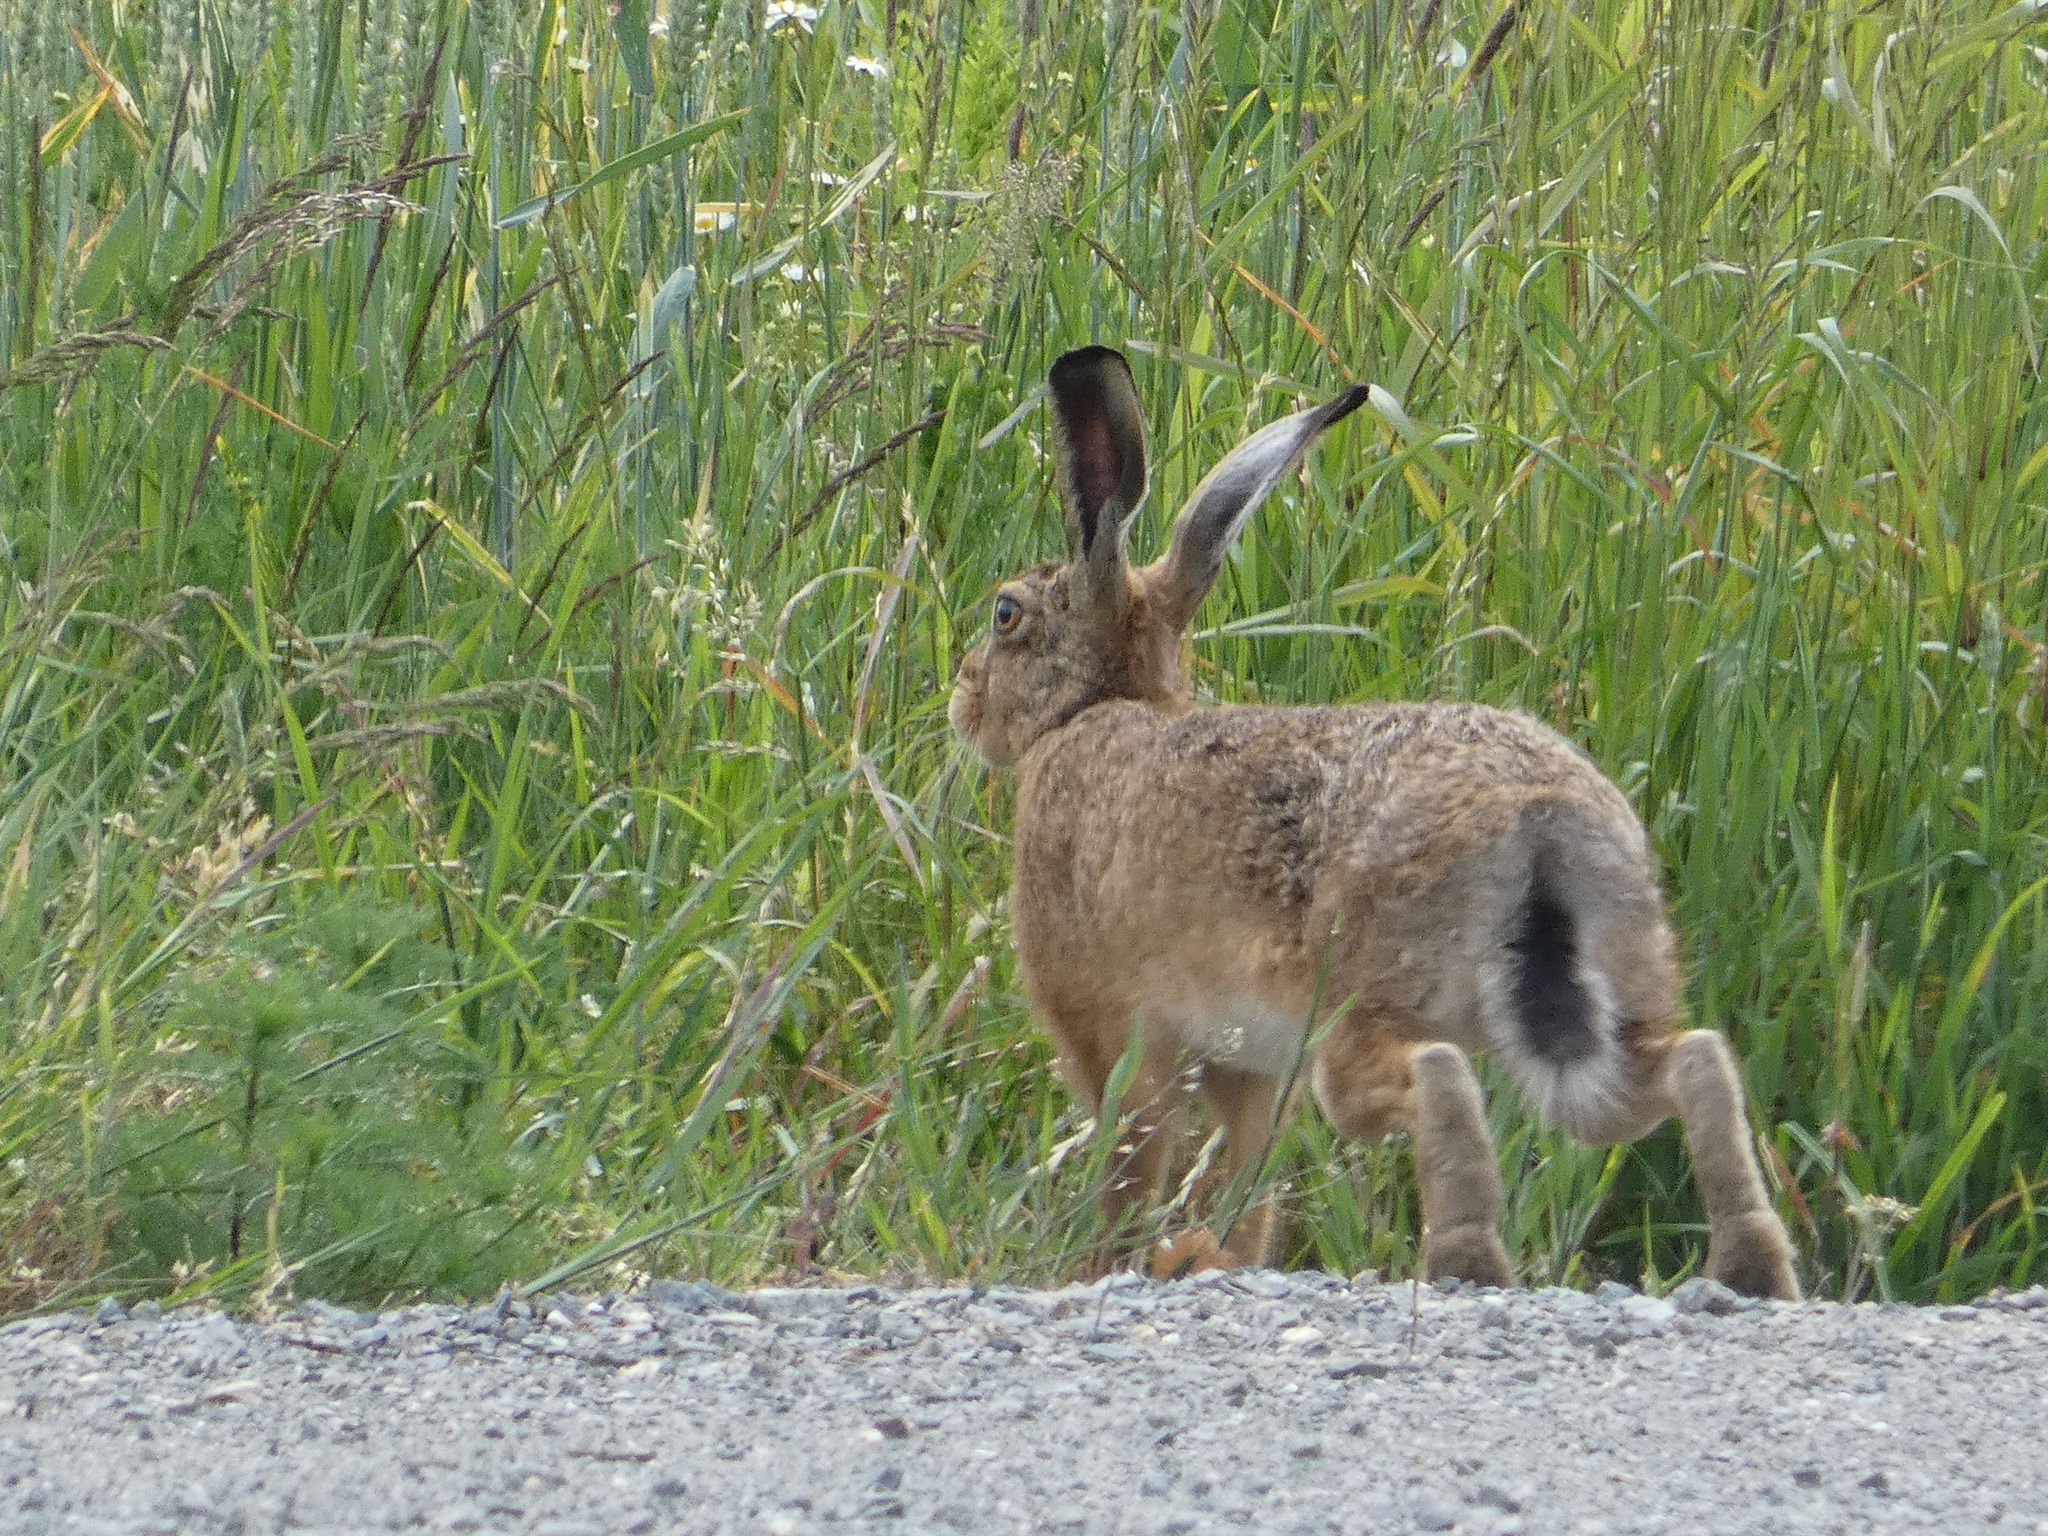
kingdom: Animalia
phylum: Chordata
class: Mammalia
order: Lagomorpha
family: Leporidae
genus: Lepus
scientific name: Lepus europaeus
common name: European hare
